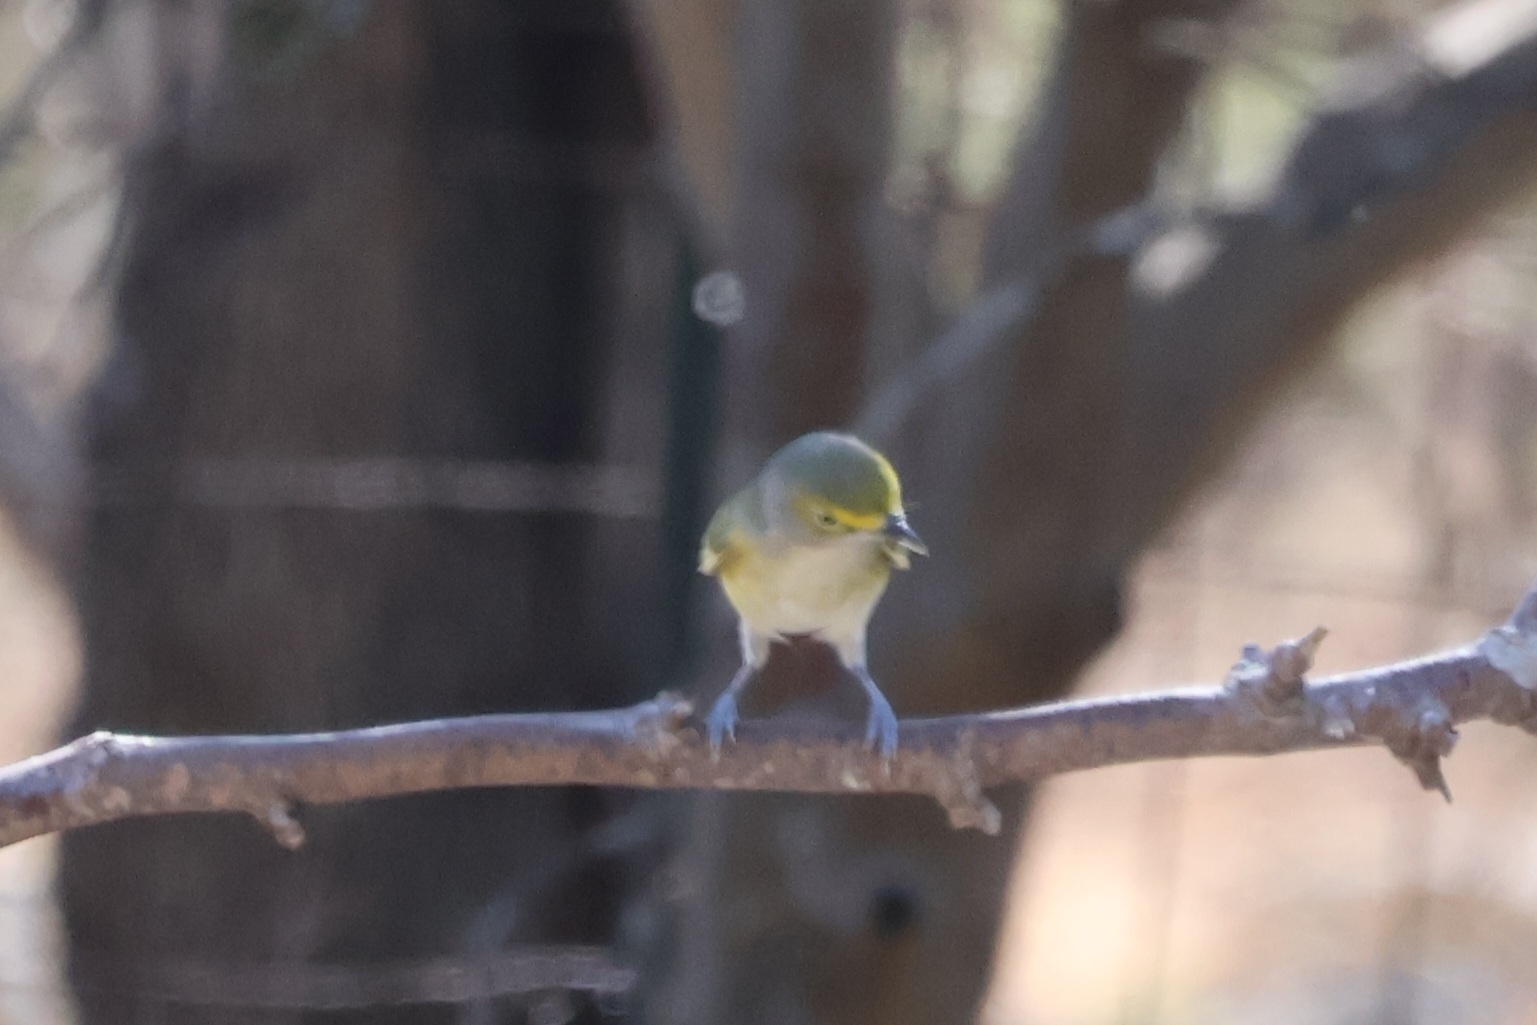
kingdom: Animalia
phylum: Chordata
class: Aves
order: Passeriformes
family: Vireonidae
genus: Vireo
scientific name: Vireo griseus
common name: White-eyed vireo
